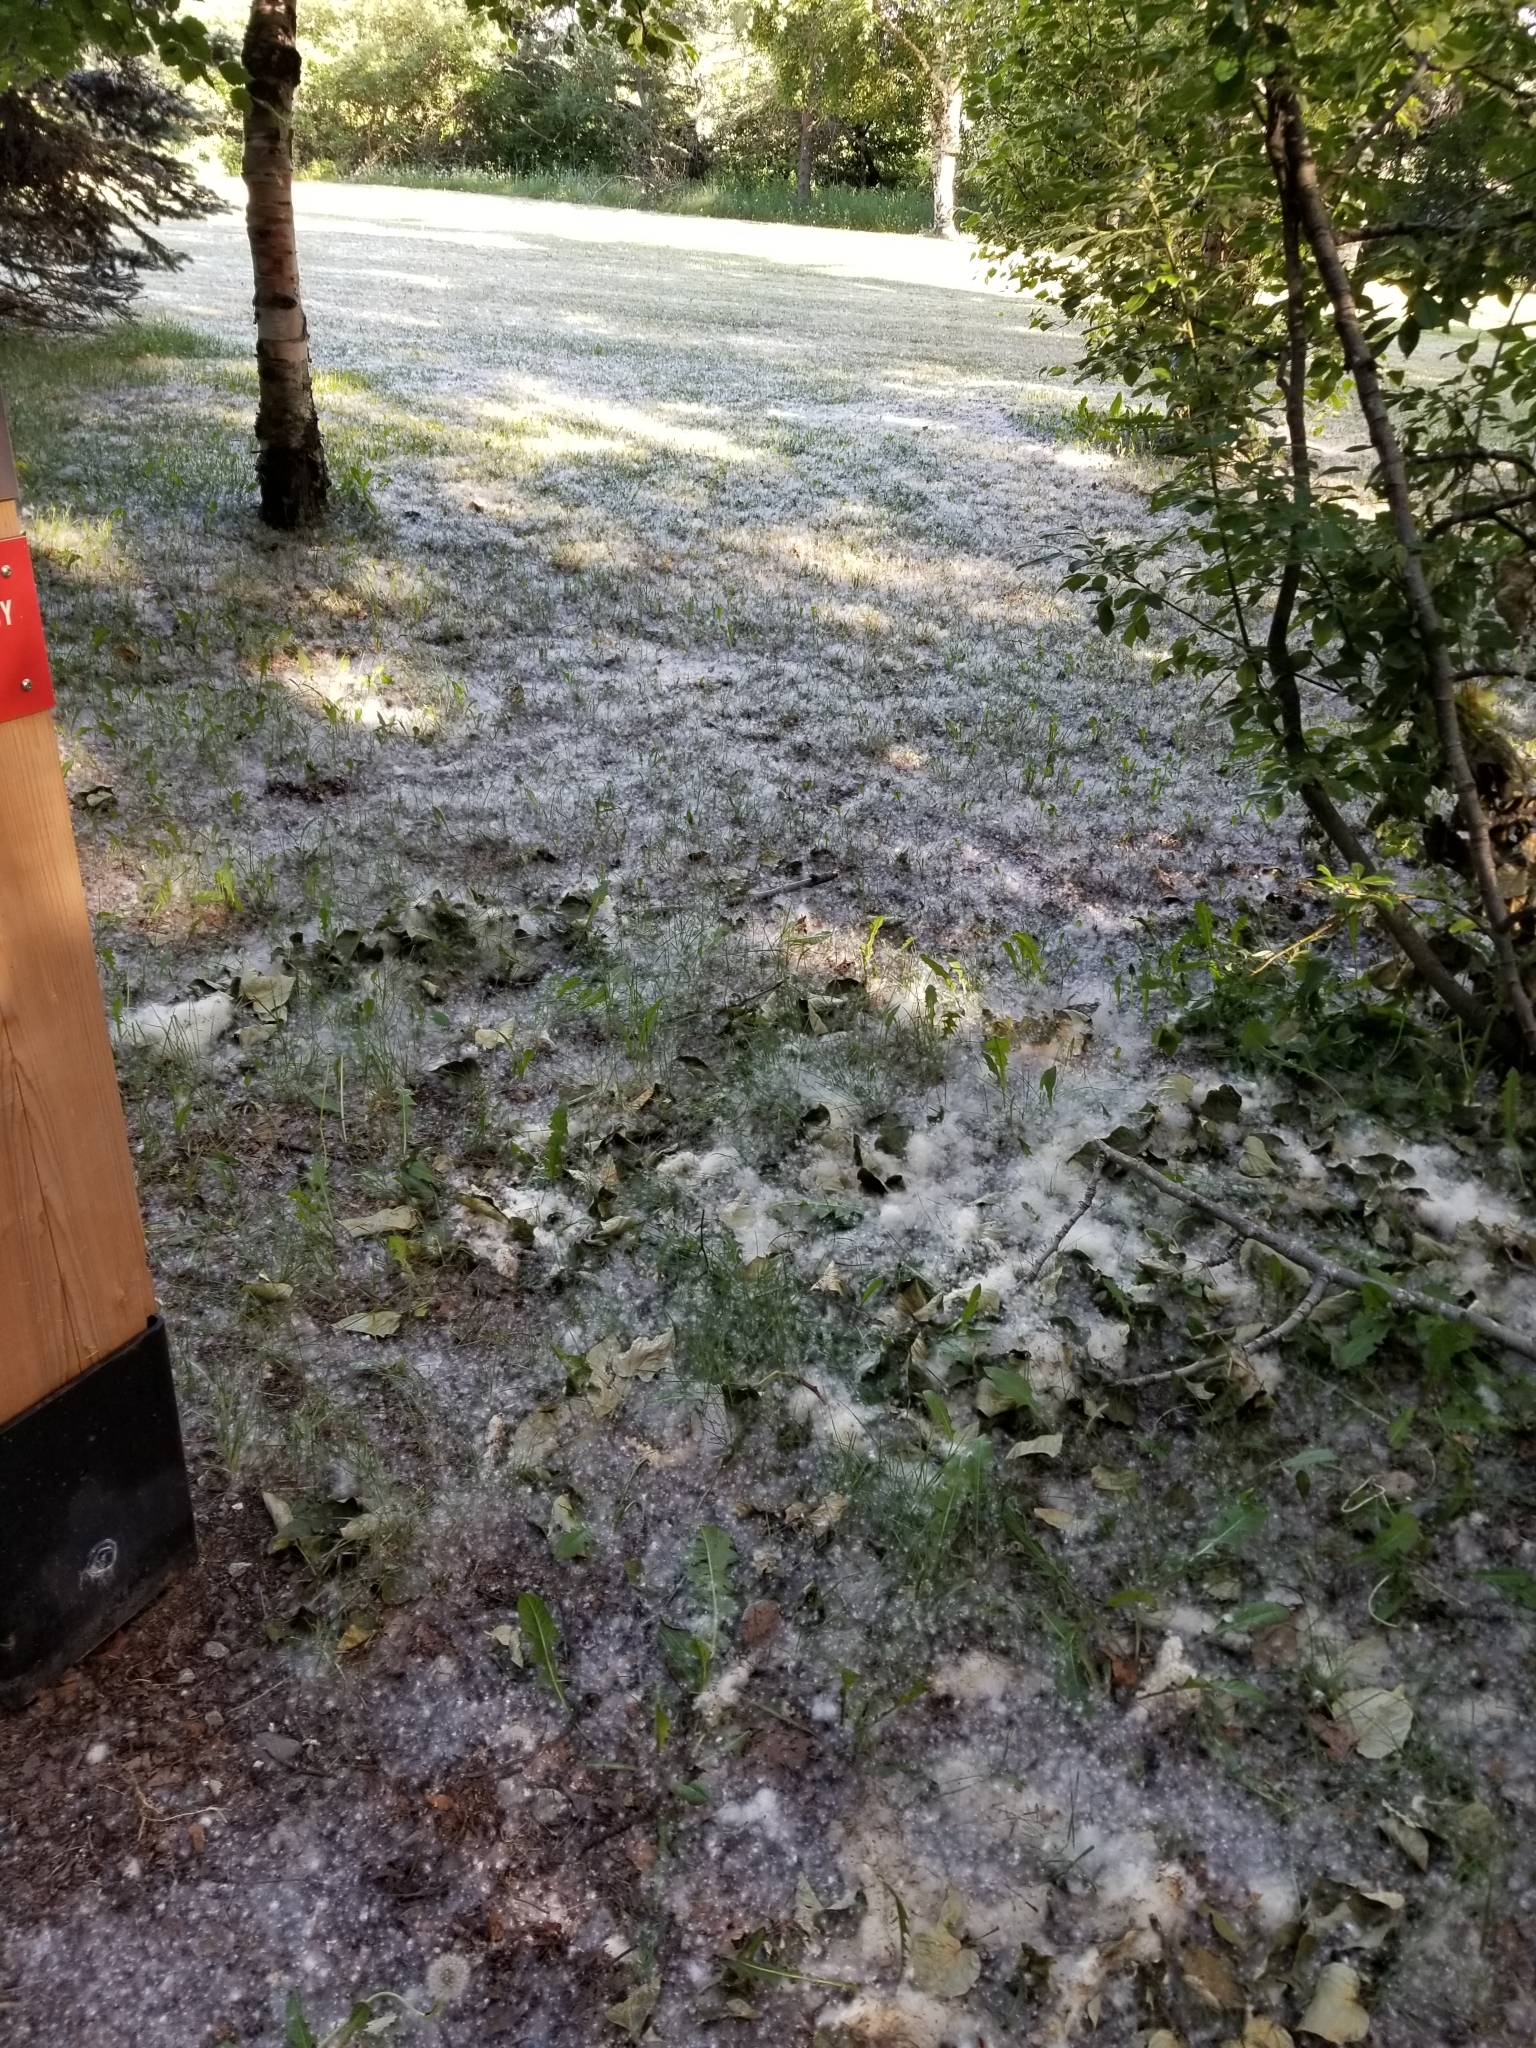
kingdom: Plantae
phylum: Tracheophyta
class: Magnoliopsida
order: Malpighiales
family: Salicaceae
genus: Populus
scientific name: Populus trichocarpa
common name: Black cottonwood
